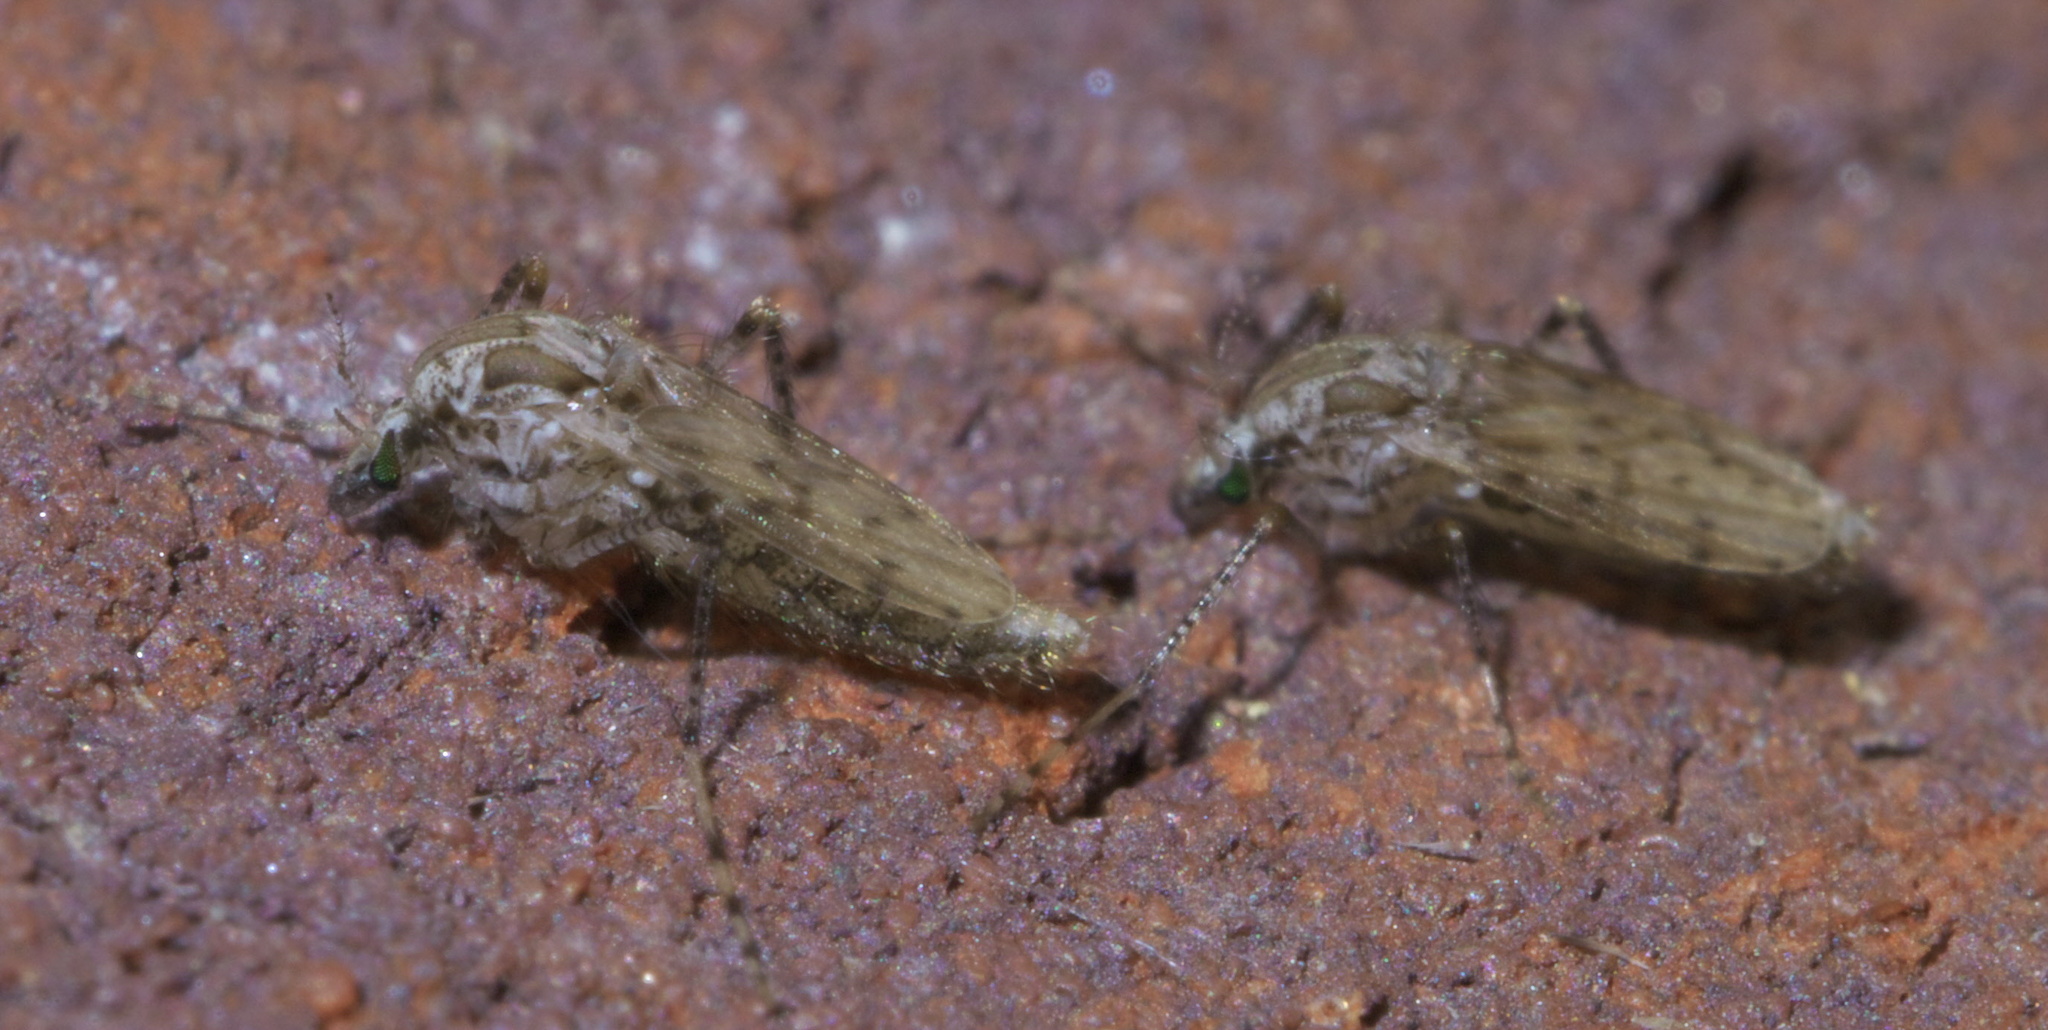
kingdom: Animalia
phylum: Arthropoda
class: Insecta
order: Diptera
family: Chaoboridae
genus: Chaoborus
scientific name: Chaoborus punctipennis
